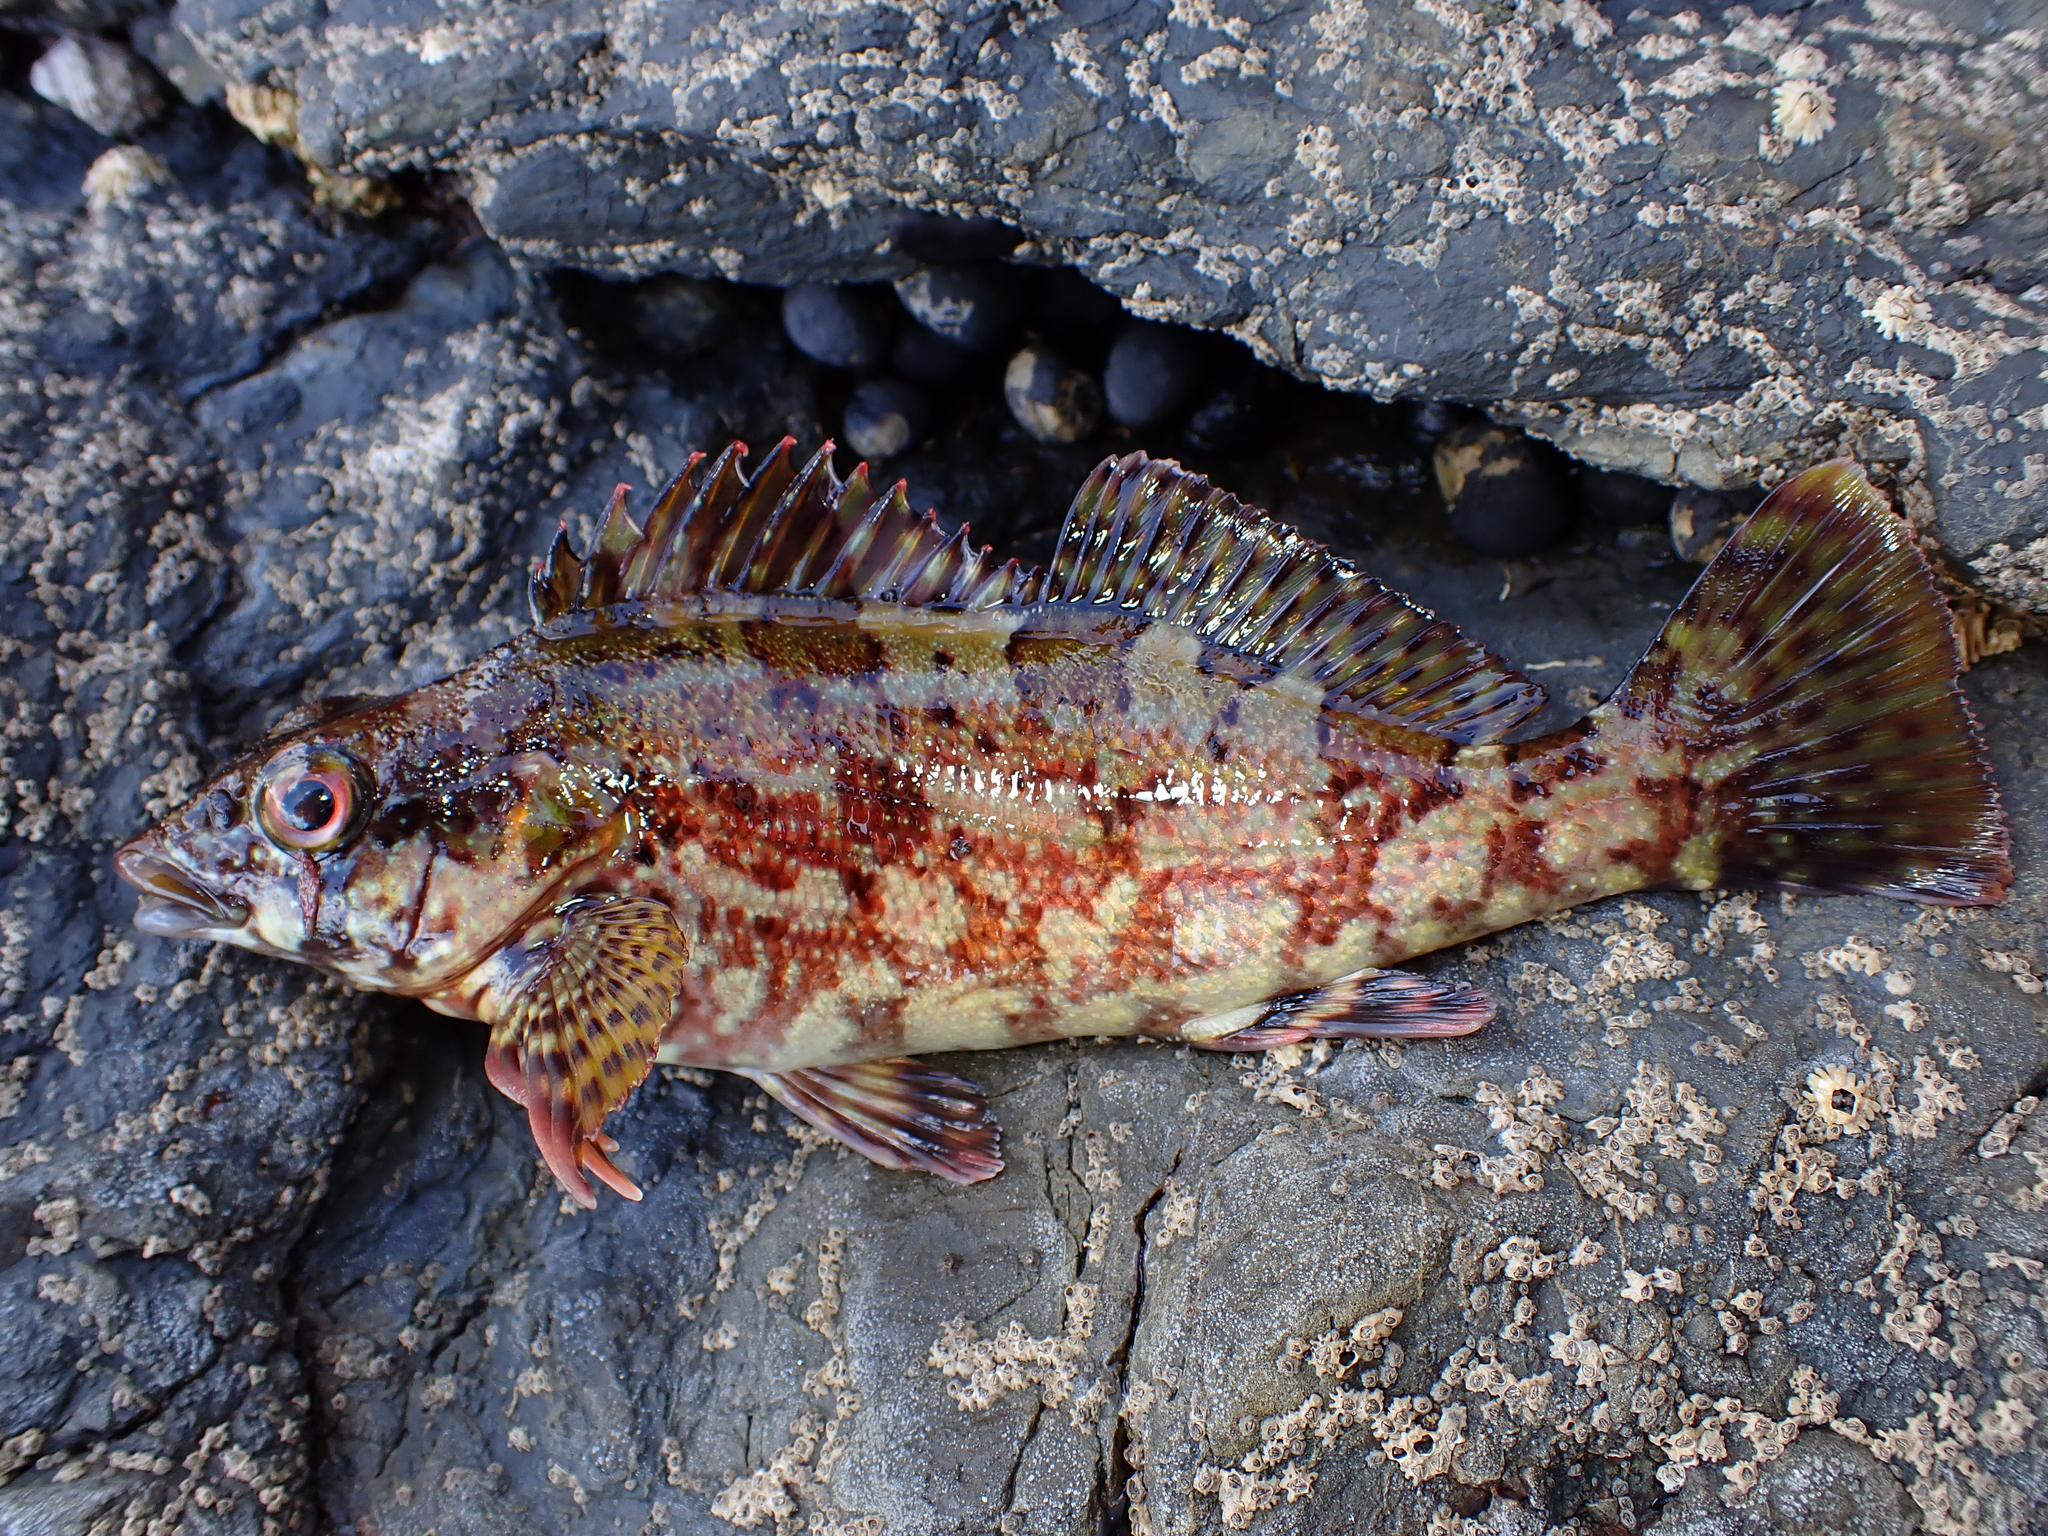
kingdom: Animalia
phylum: Chordata
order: Perciformes
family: Chironemidae
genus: Chironemus
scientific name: Chironemus marmoratus
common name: Kelpfish
